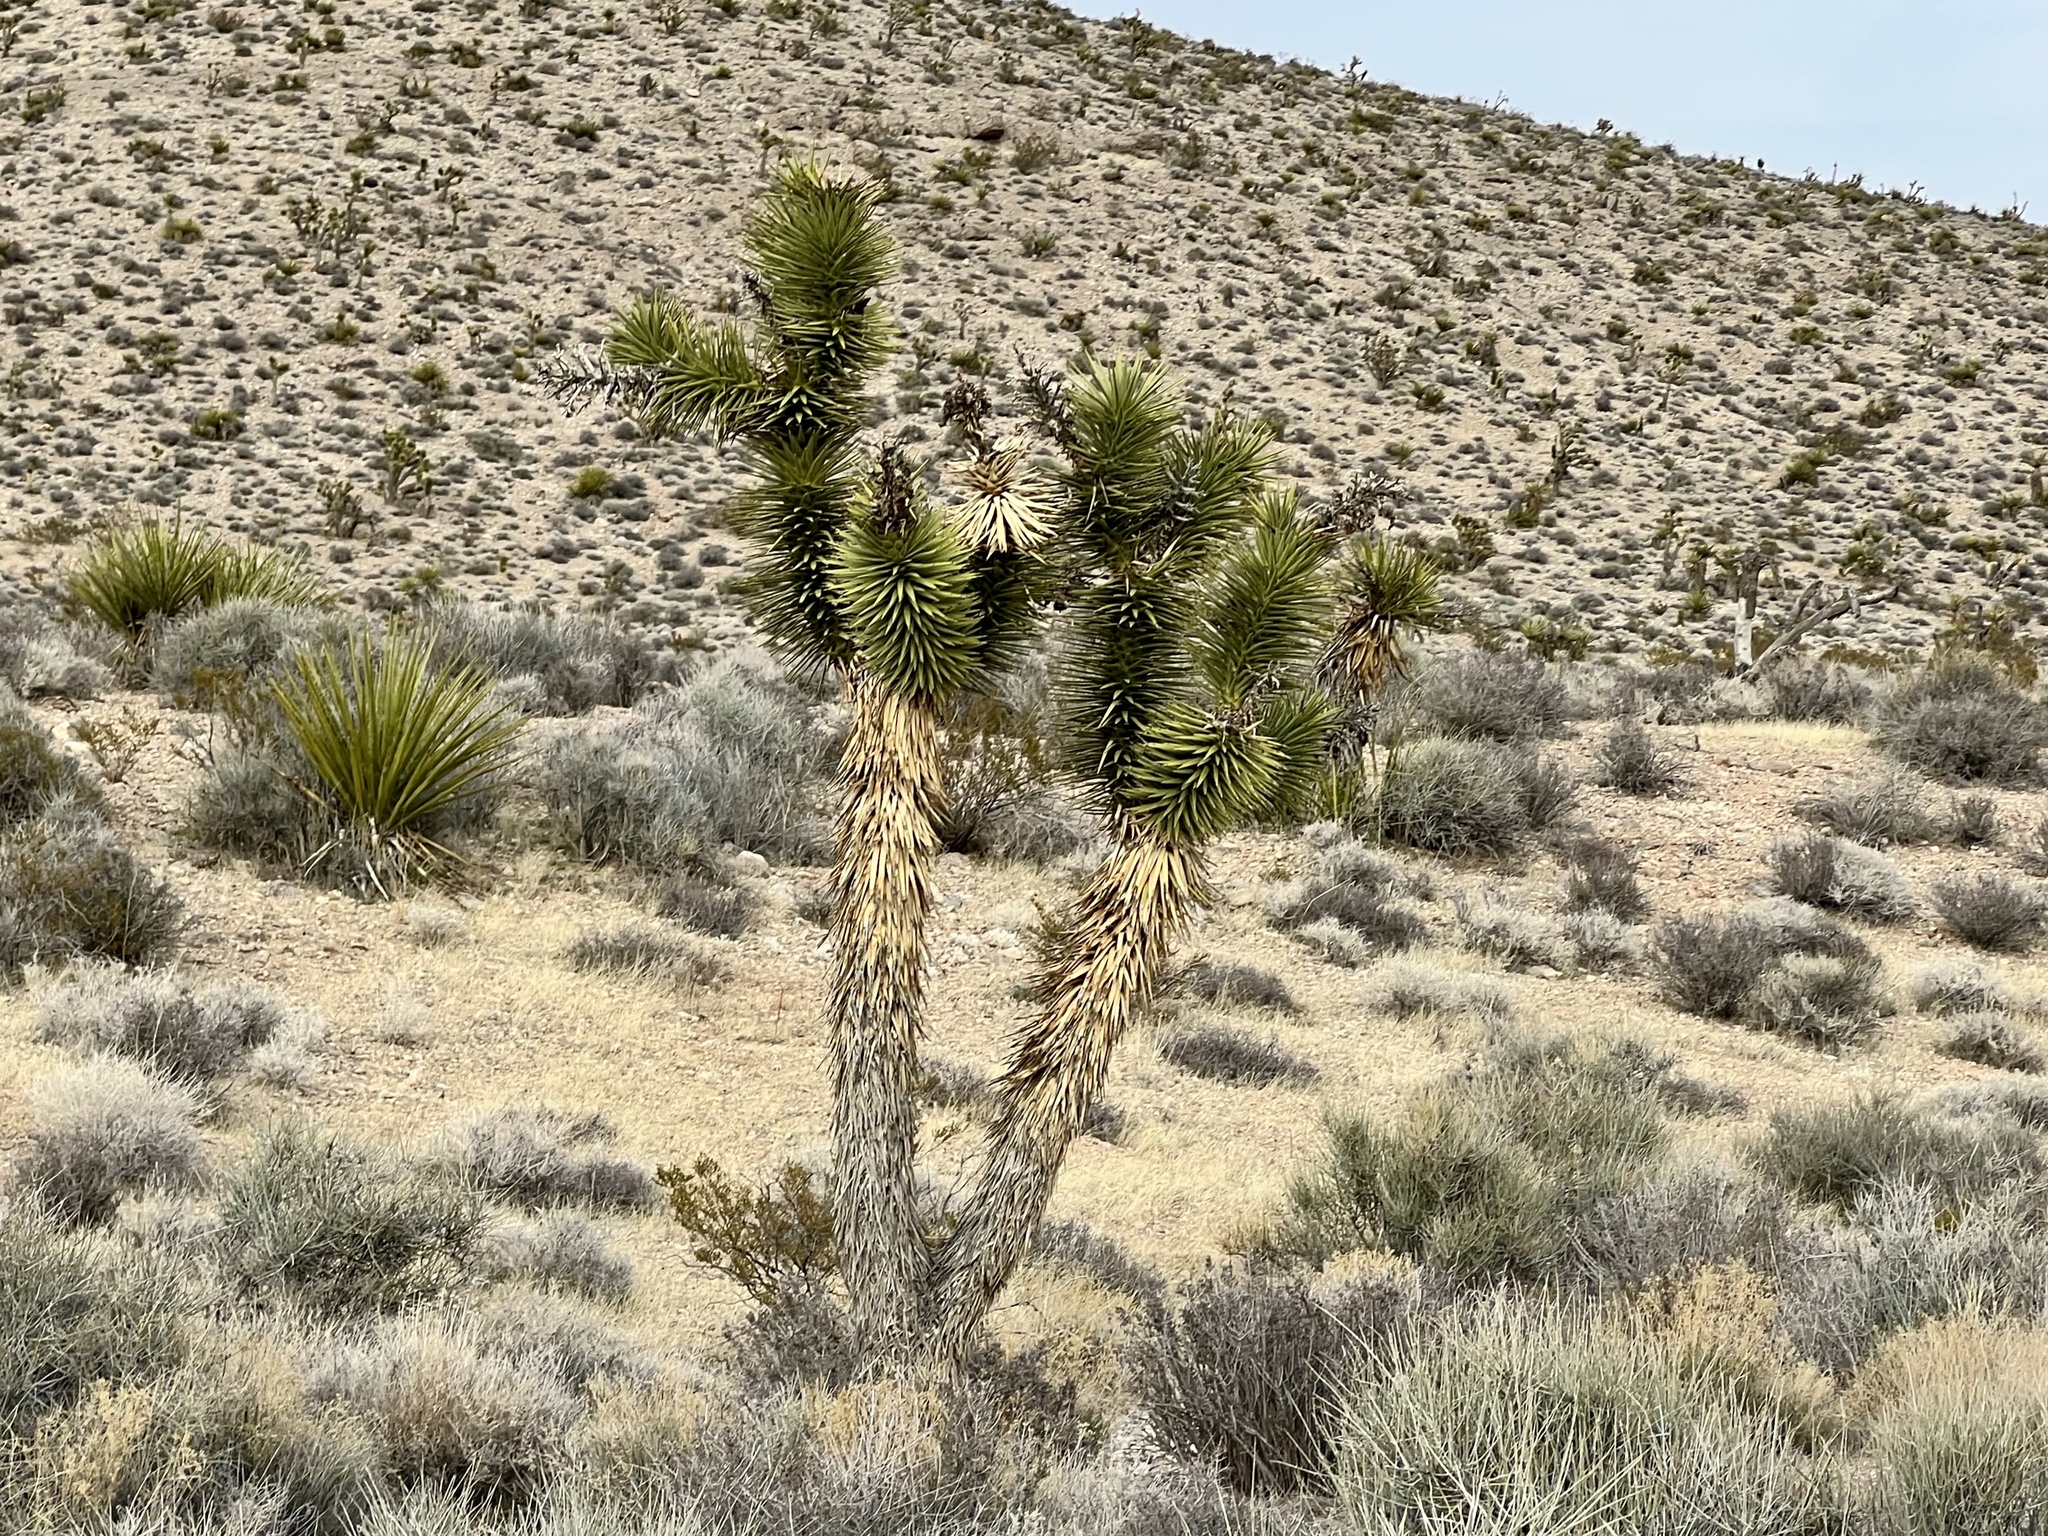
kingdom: Plantae
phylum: Tracheophyta
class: Liliopsida
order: Asparagales
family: Asparagaceae
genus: Yucca
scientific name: Yucca brevifolia
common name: Joshua tree
